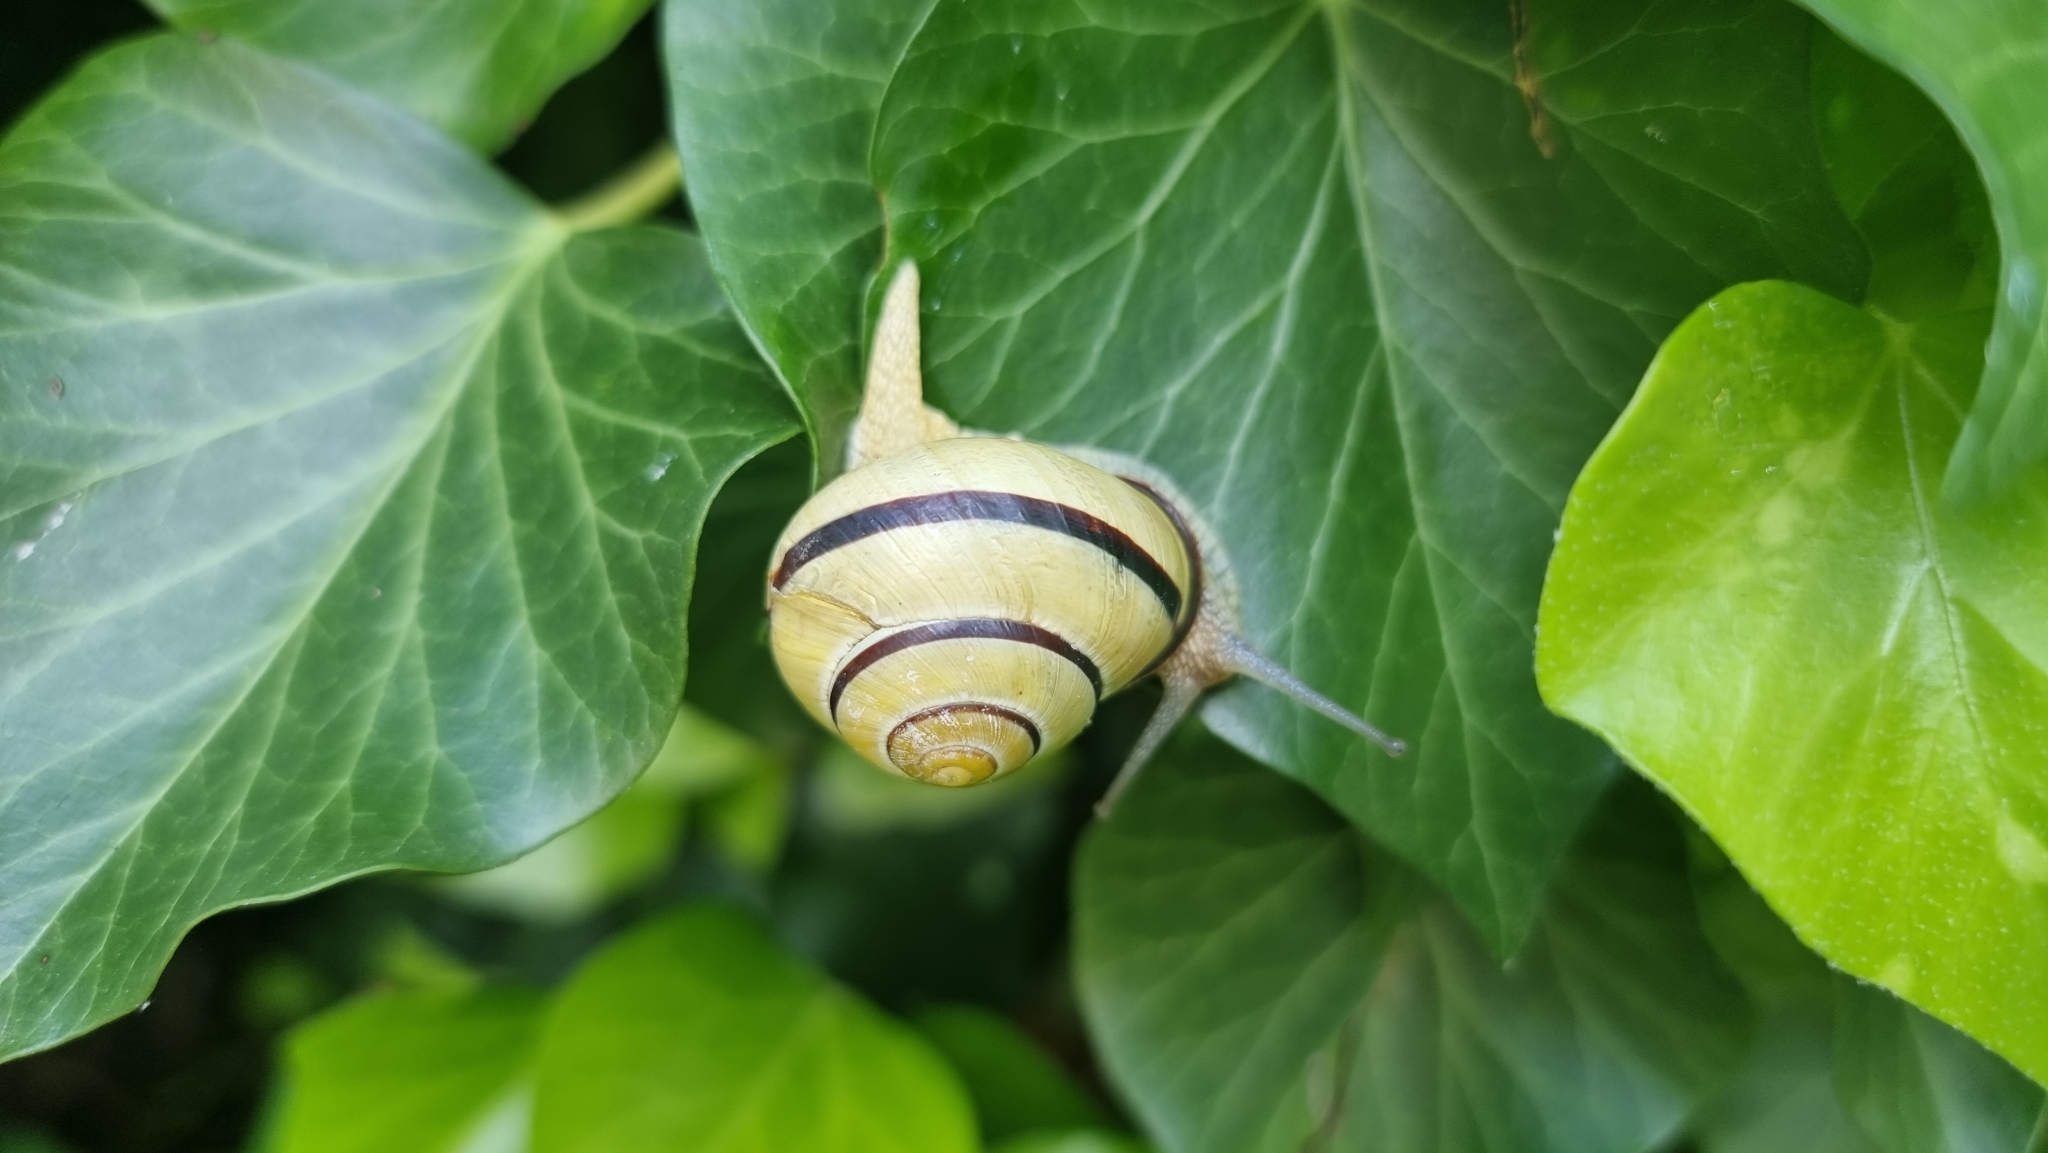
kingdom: Animalia
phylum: Mollusca
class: Gastropoda
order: Stylommatophora
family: Helicidae
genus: Cepaea
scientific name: Cepaea nemoralis
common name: Grovesnail
